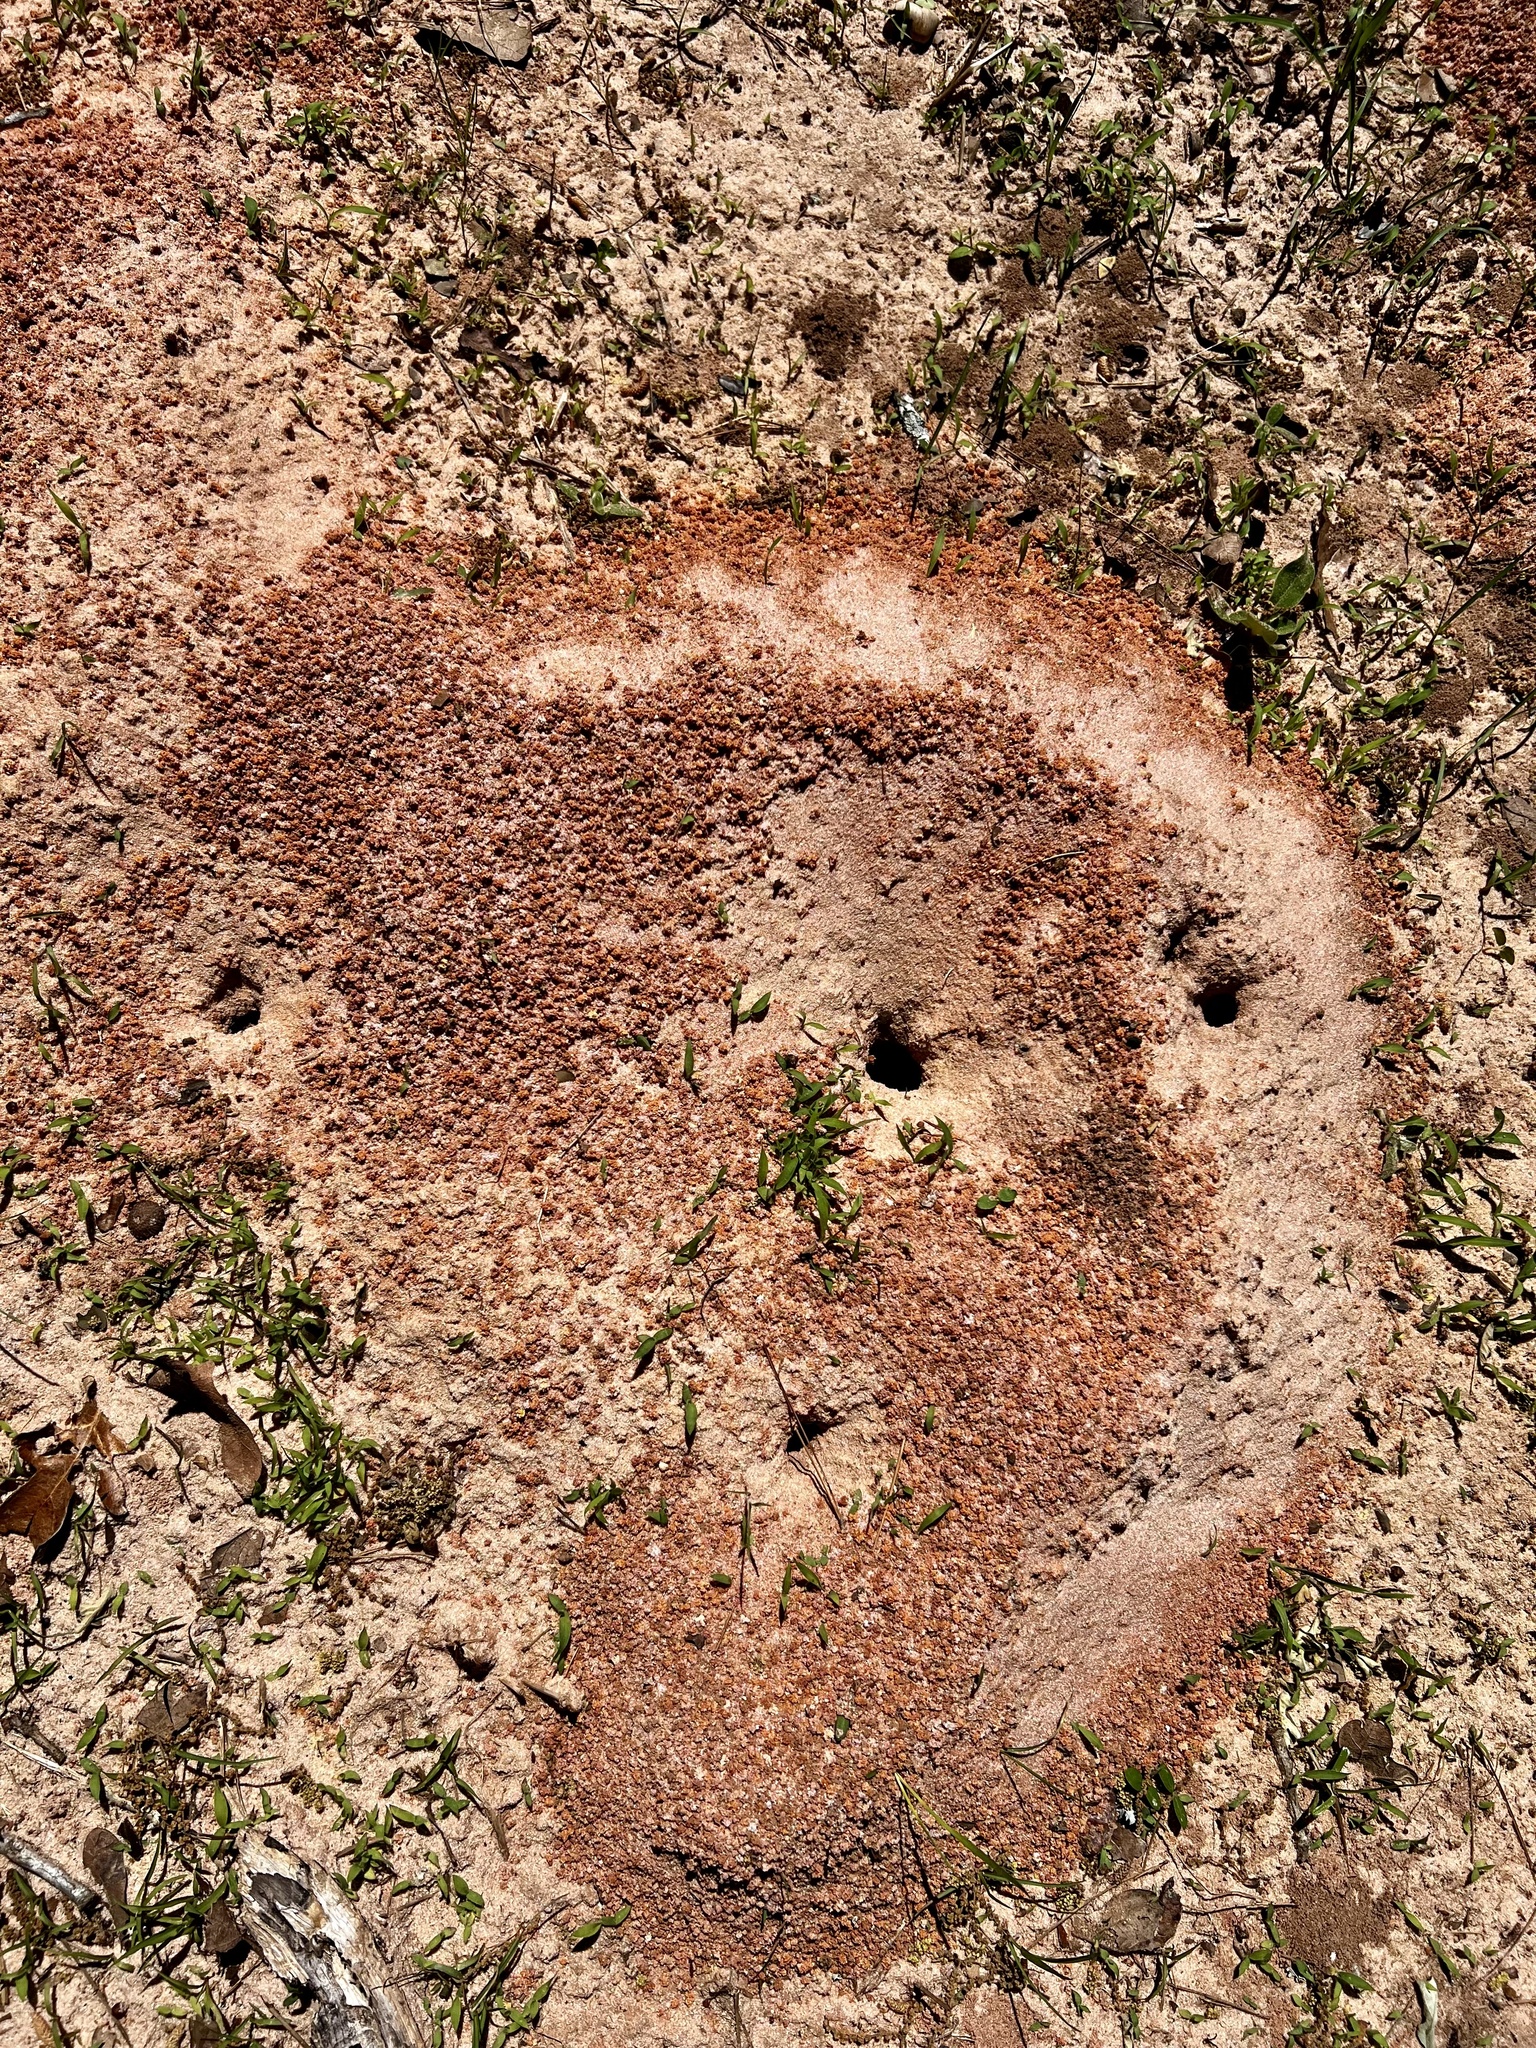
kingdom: Animalia
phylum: Arthropoda
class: Insecta
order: Hymenoptera
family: Formicidae
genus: Atta
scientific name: Atta texana
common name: Texas leafcutting ant
